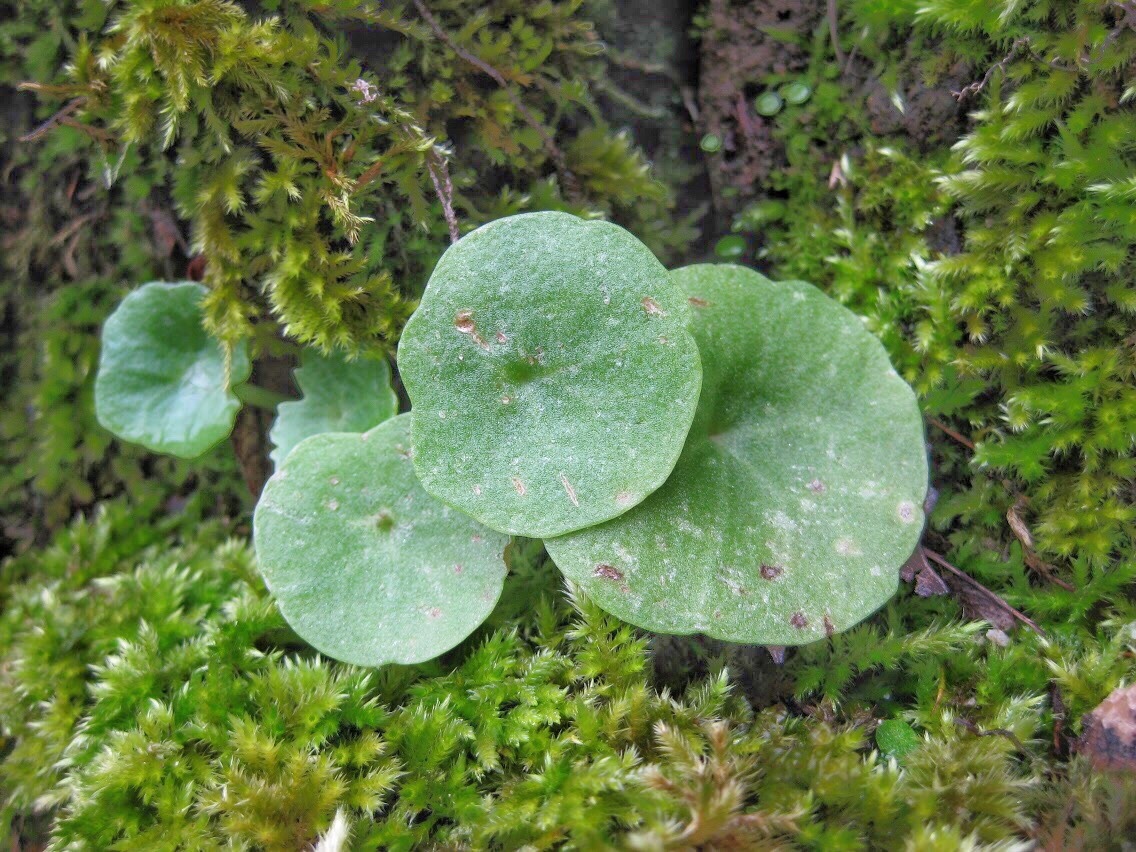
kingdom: Plantae
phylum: Tracheophyta
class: Magnoliopsida
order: Saxifragales
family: Crassulaceae
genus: Umbilicus
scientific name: Umbilicus rupestris
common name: Navelwort
